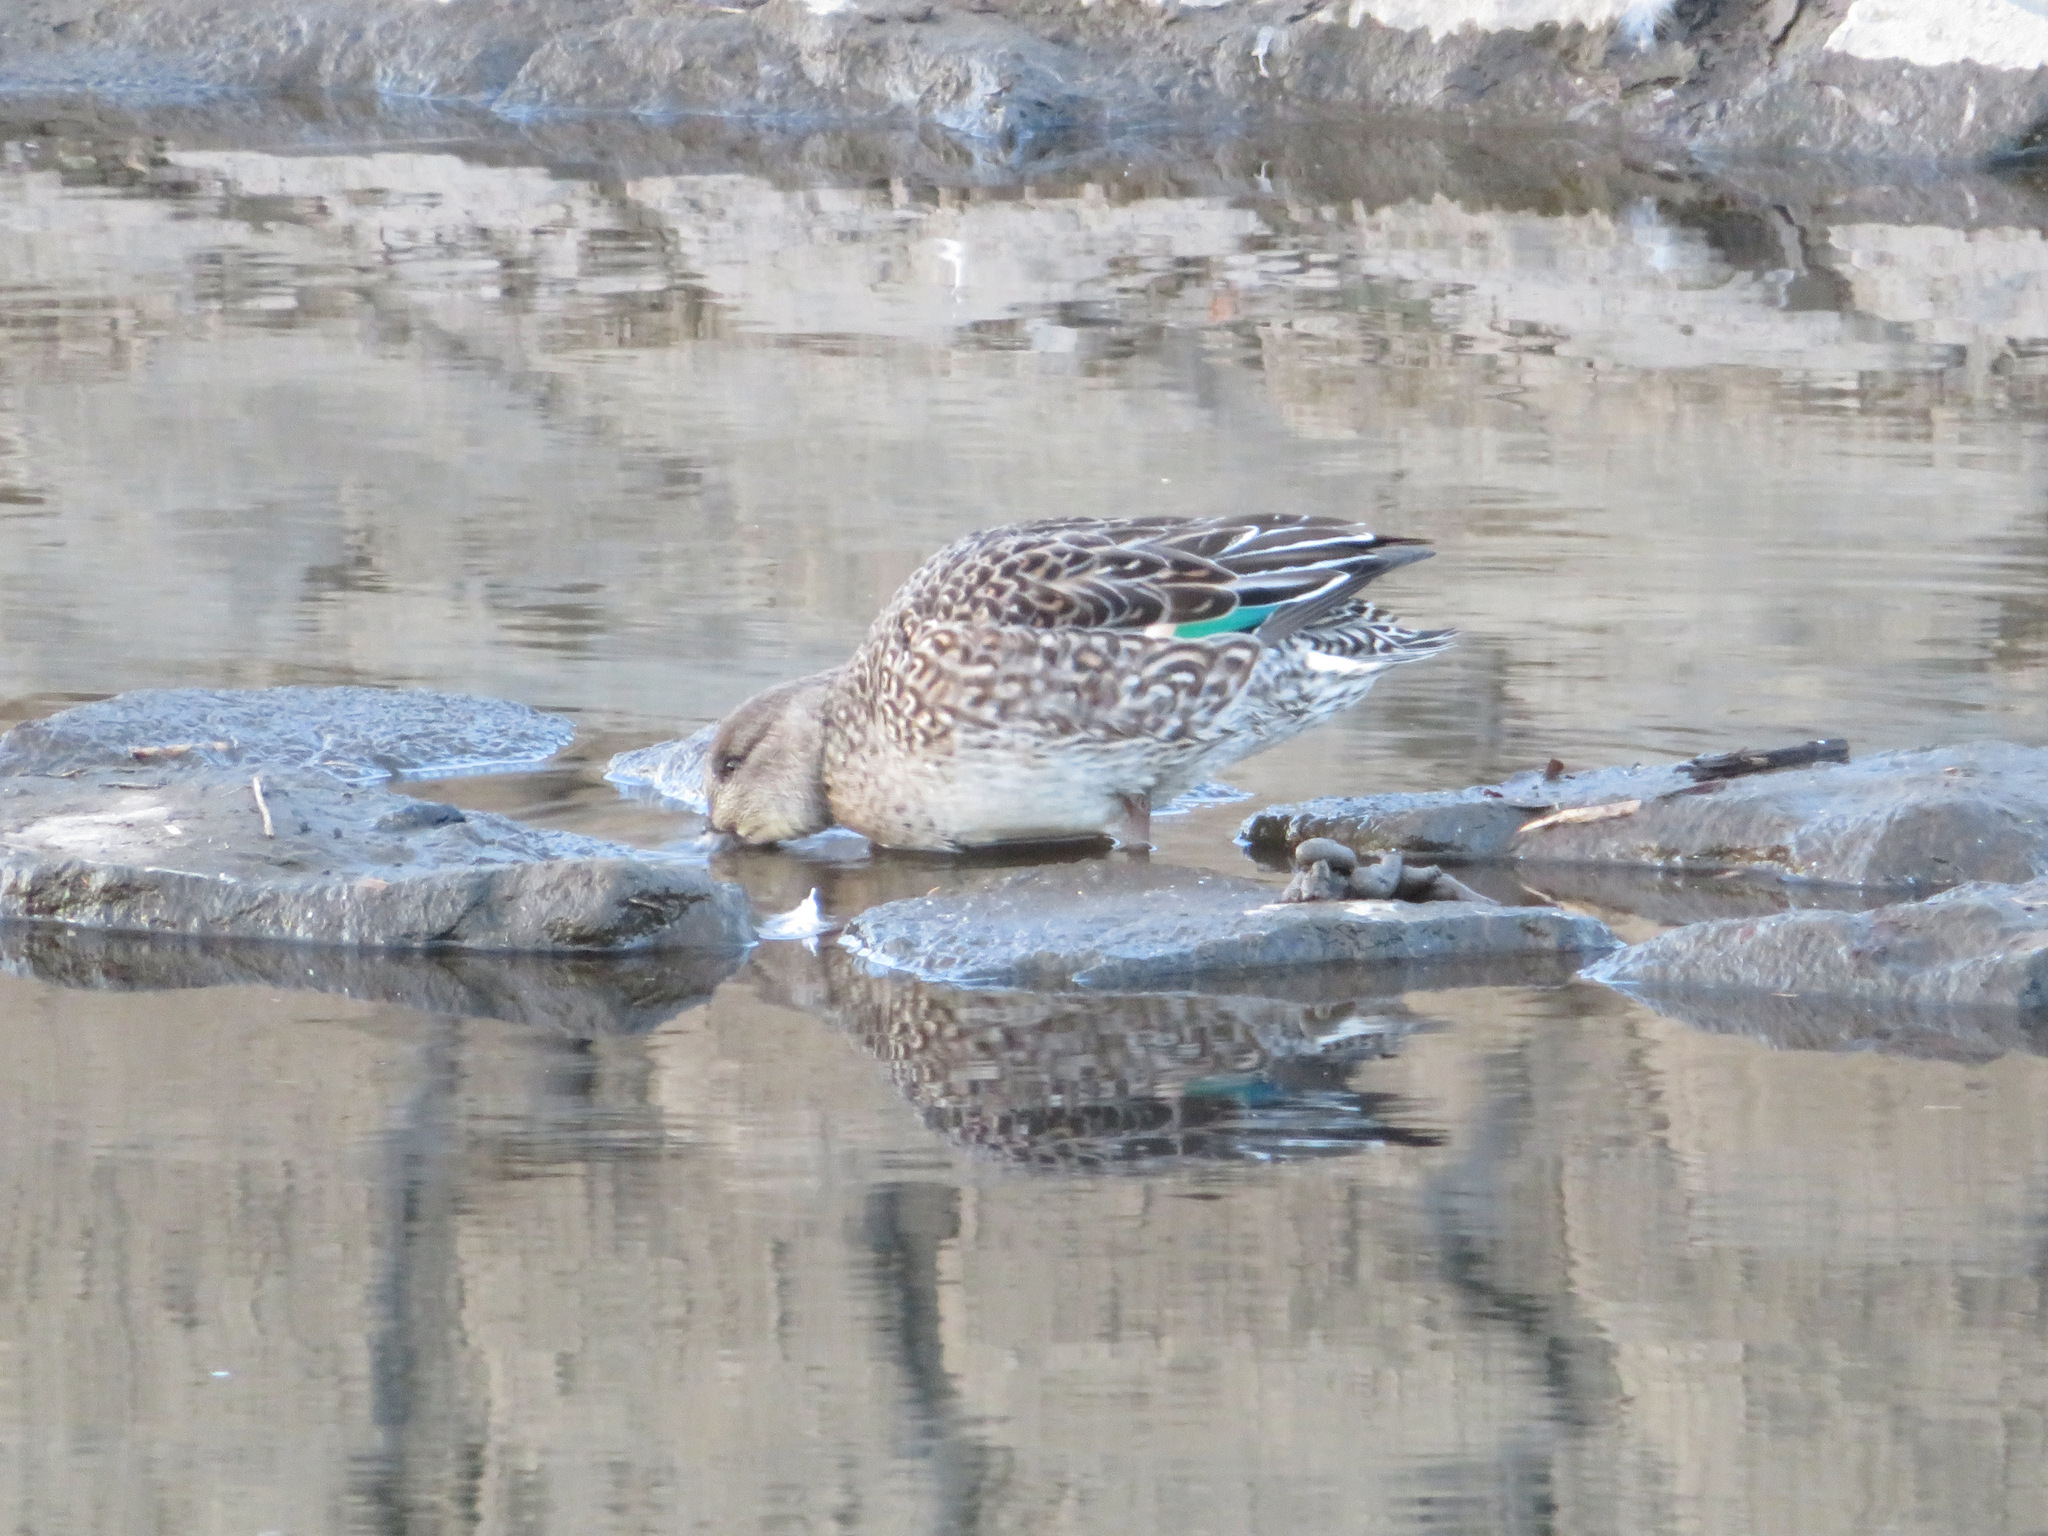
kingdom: Animalia
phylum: Chordata
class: Aves
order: Anseriformes
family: Anatidae
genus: Anas
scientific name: Anas crecca
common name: Eurasian teal
